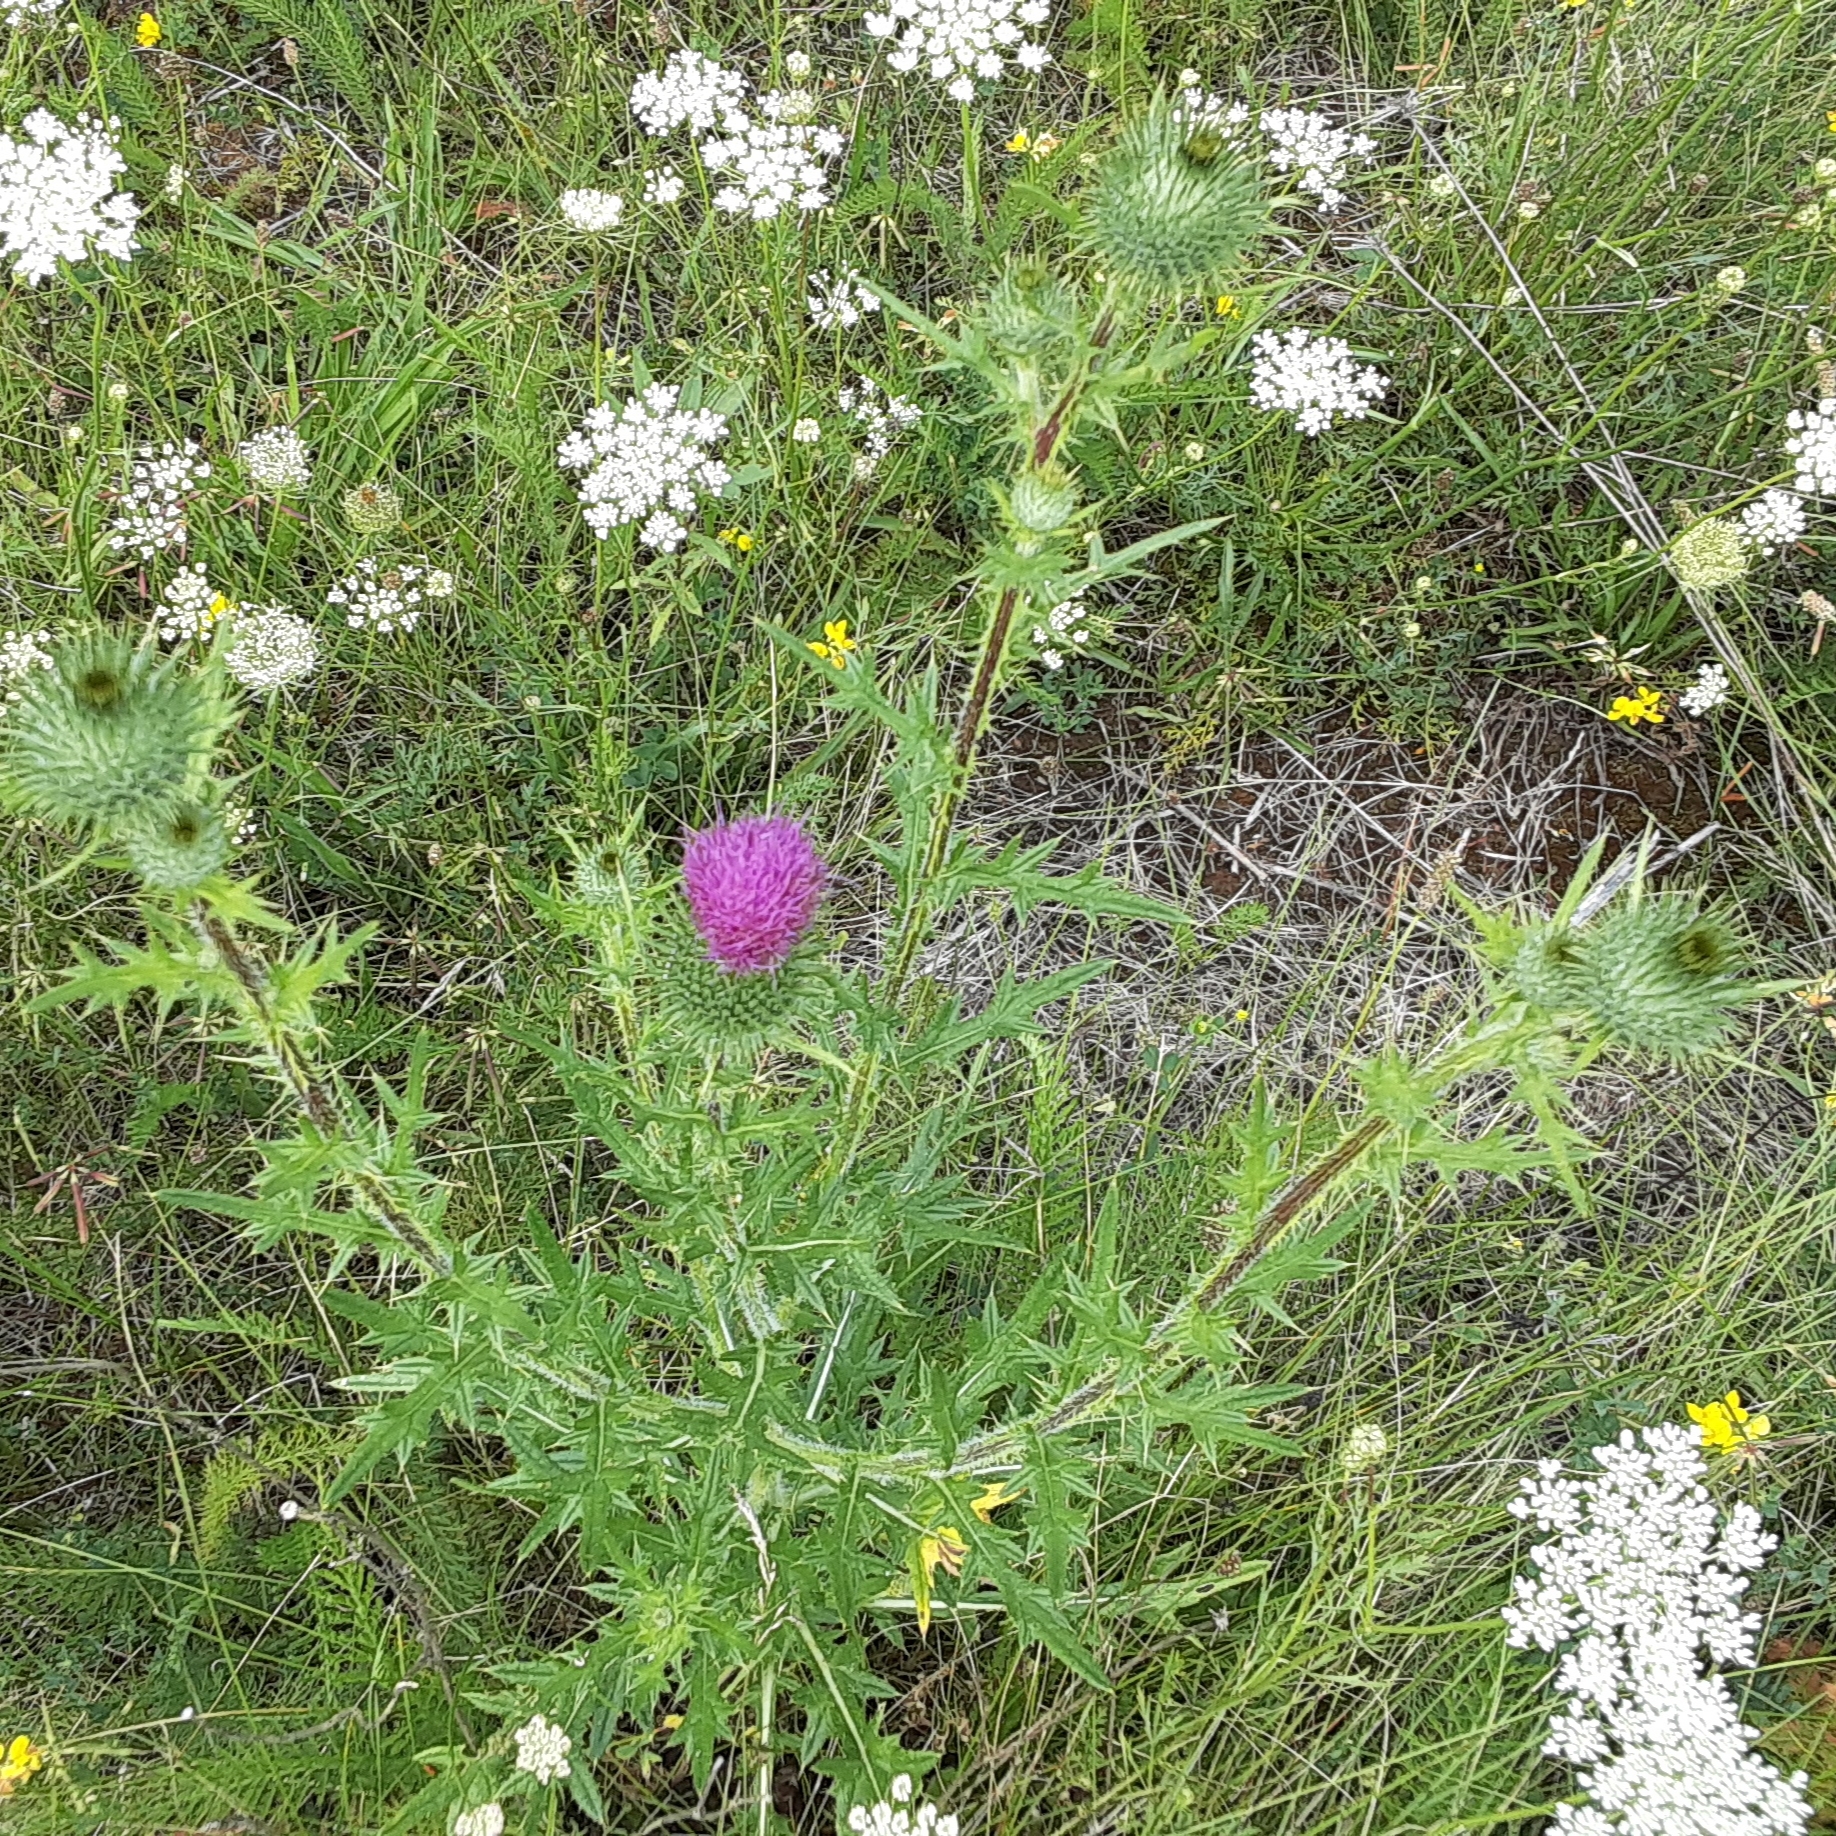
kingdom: Plantae
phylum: Tracheophyta
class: Magnoliopsida
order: Asterales
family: Asteraceae
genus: Cirsium
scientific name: Cirsium vulgare
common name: Bull thistle
